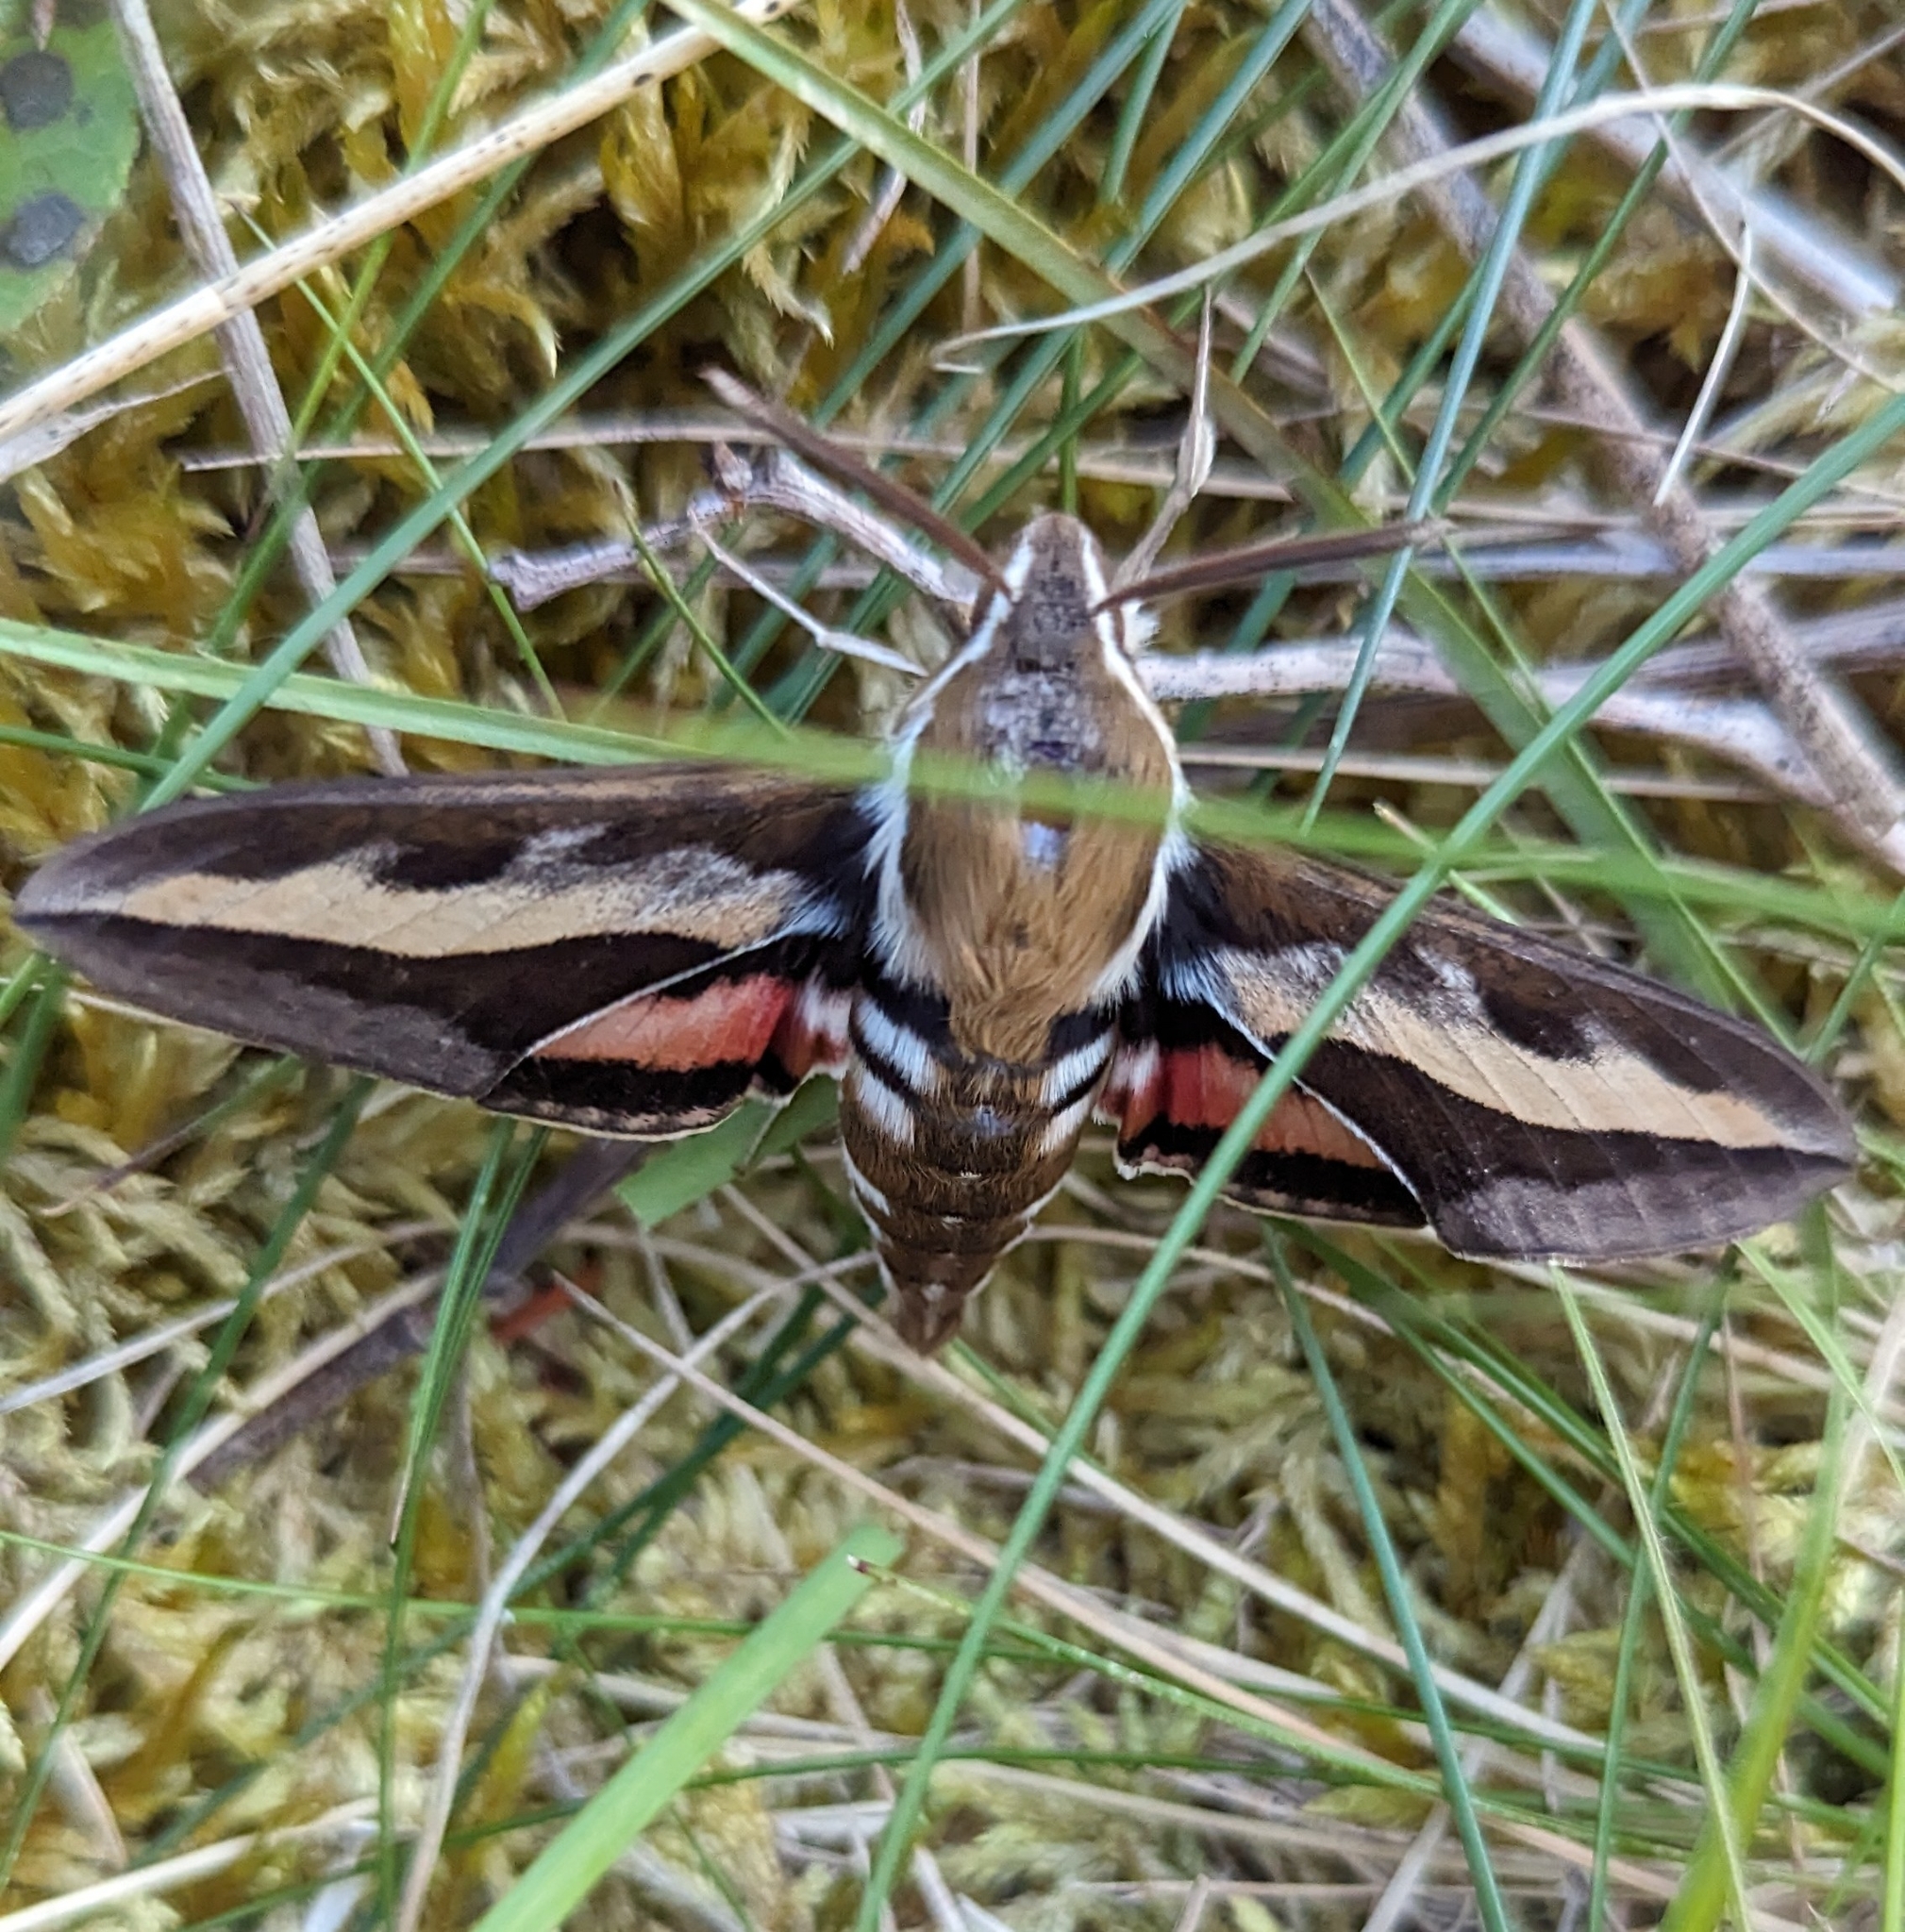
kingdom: Animalia
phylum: Arthropoda
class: Insecta
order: Lepidoptera
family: Sphingidae
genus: Hyles
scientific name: Hyles gallii
